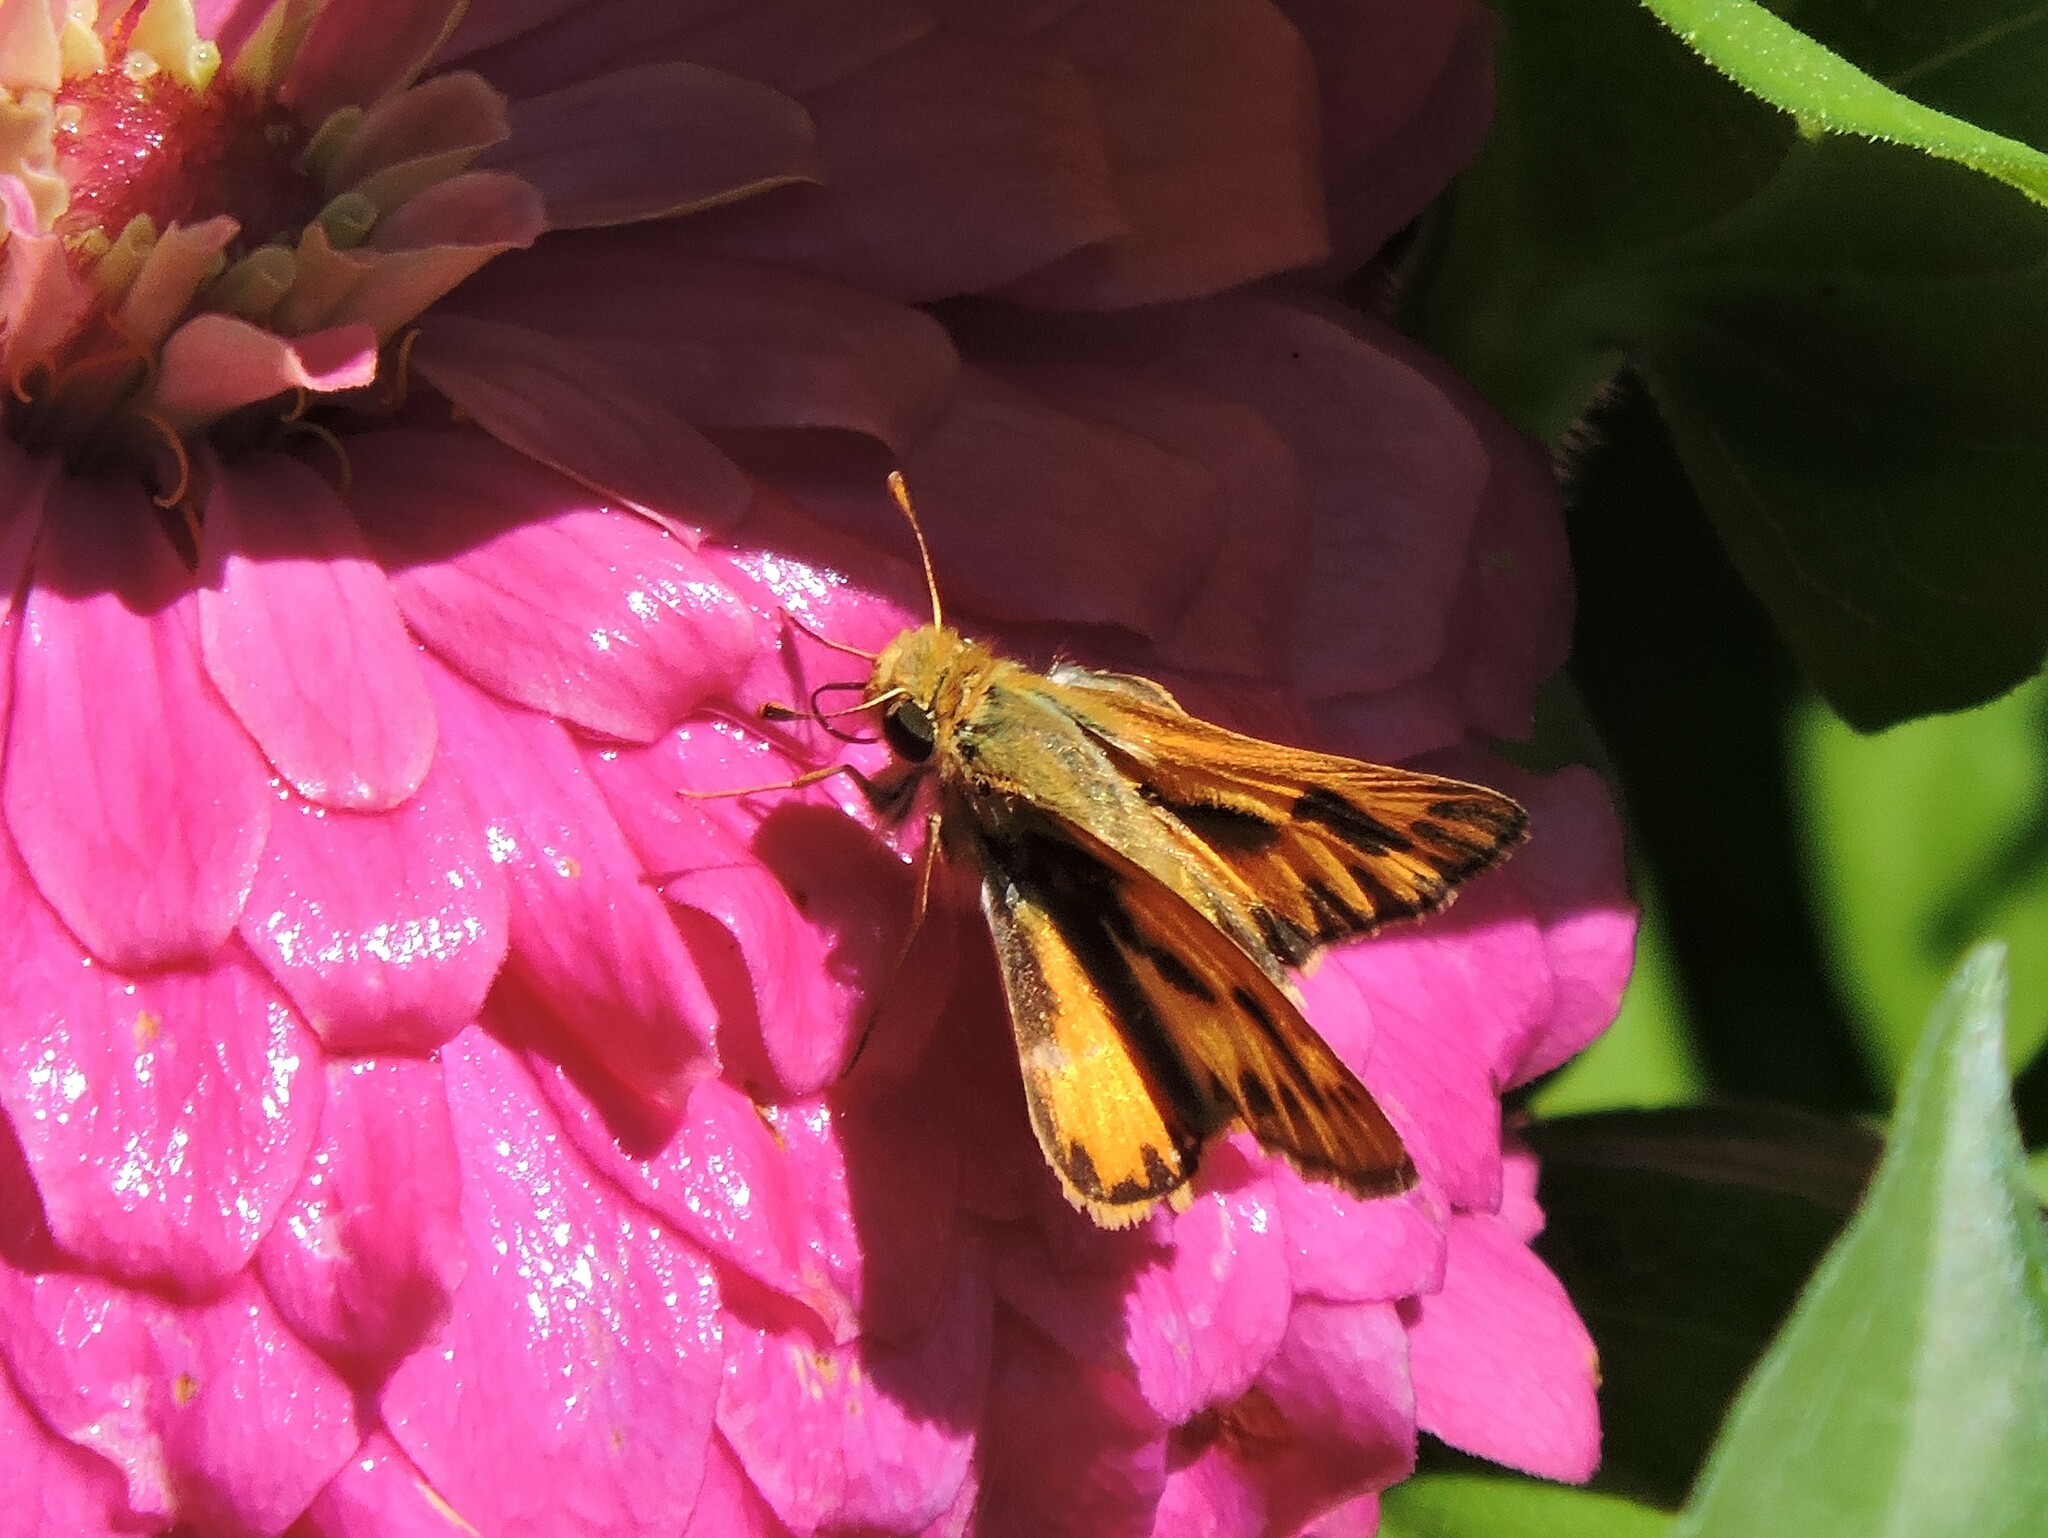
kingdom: Animalia
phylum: Arthropoda
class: Insecta
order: Lepidoptera
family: Hesperiidae
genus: Hylephila
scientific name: Hylephila phyleus
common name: Fiery skipper
